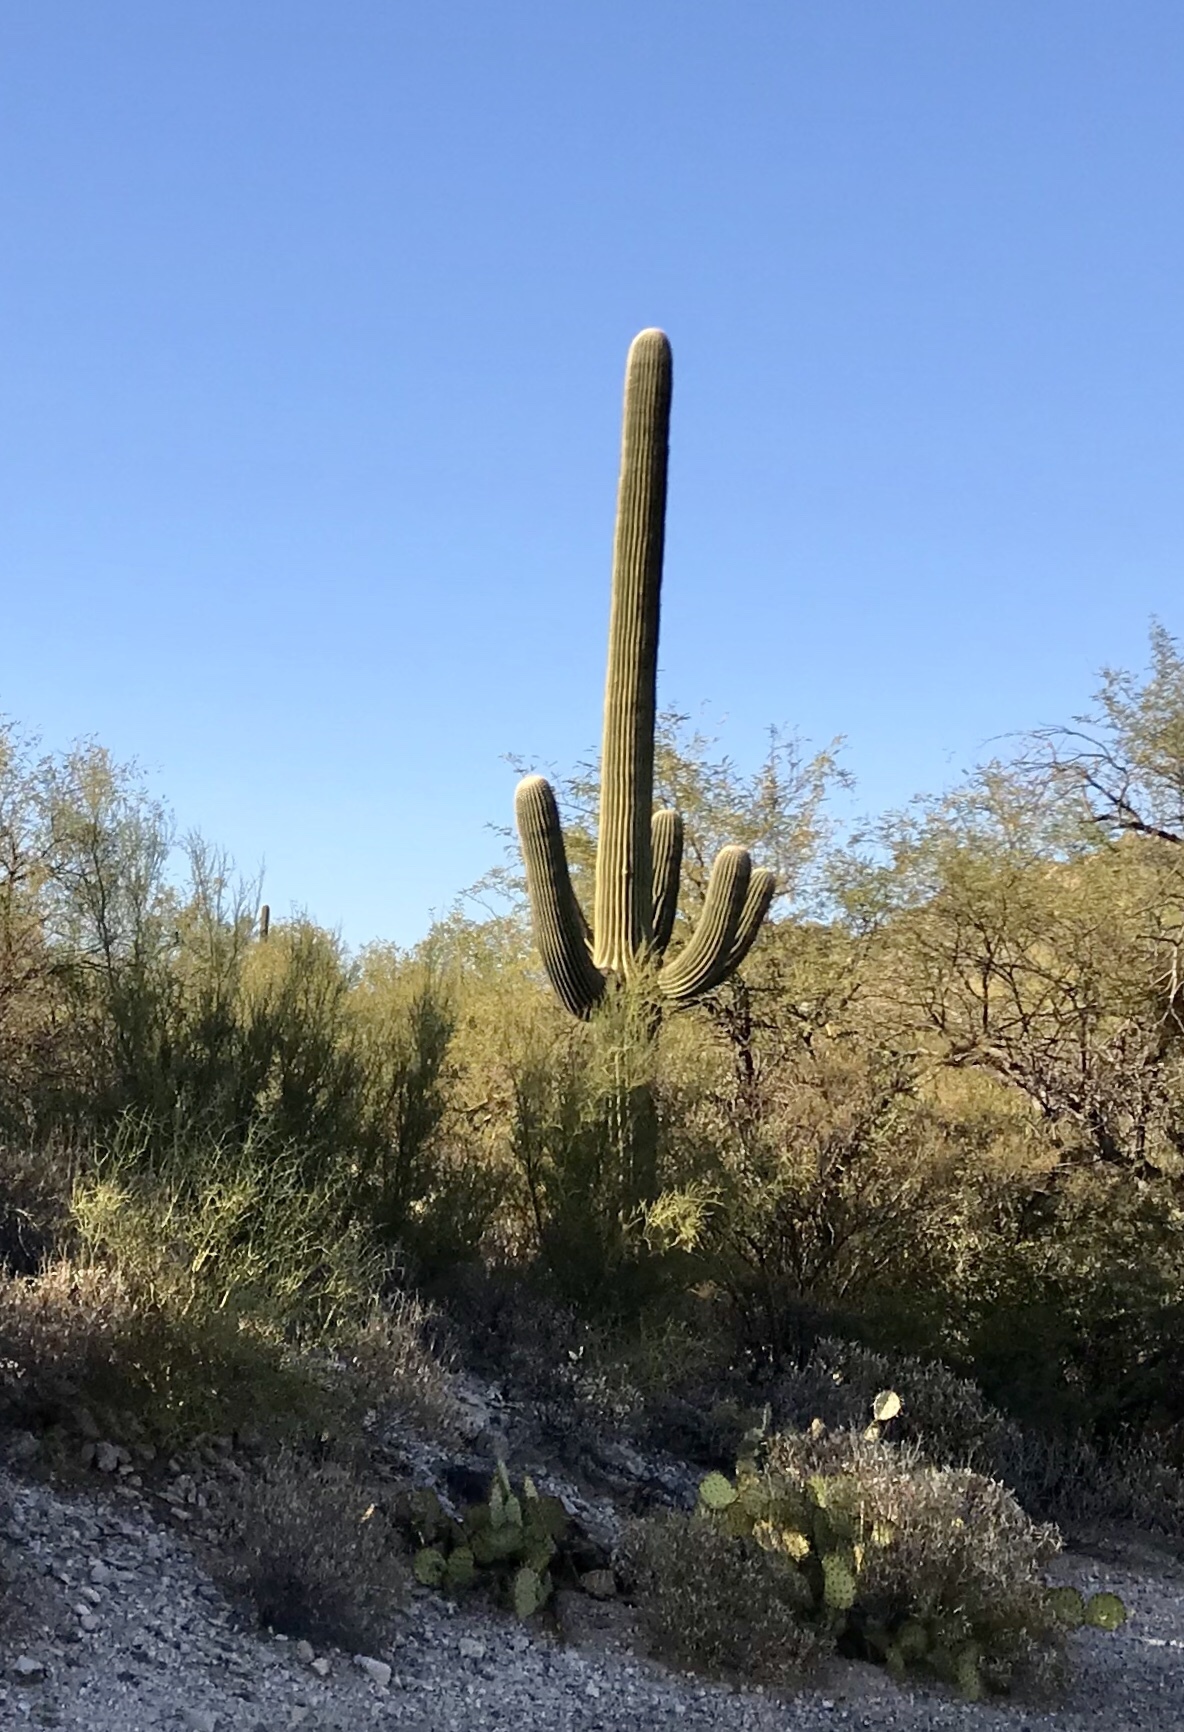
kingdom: Plantae
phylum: Tracheophyta
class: Magnoliopsida
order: Caryophyllales
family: Cactaceae
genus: Carnegiea
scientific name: Carnegiea gigantea
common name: Saguaro
